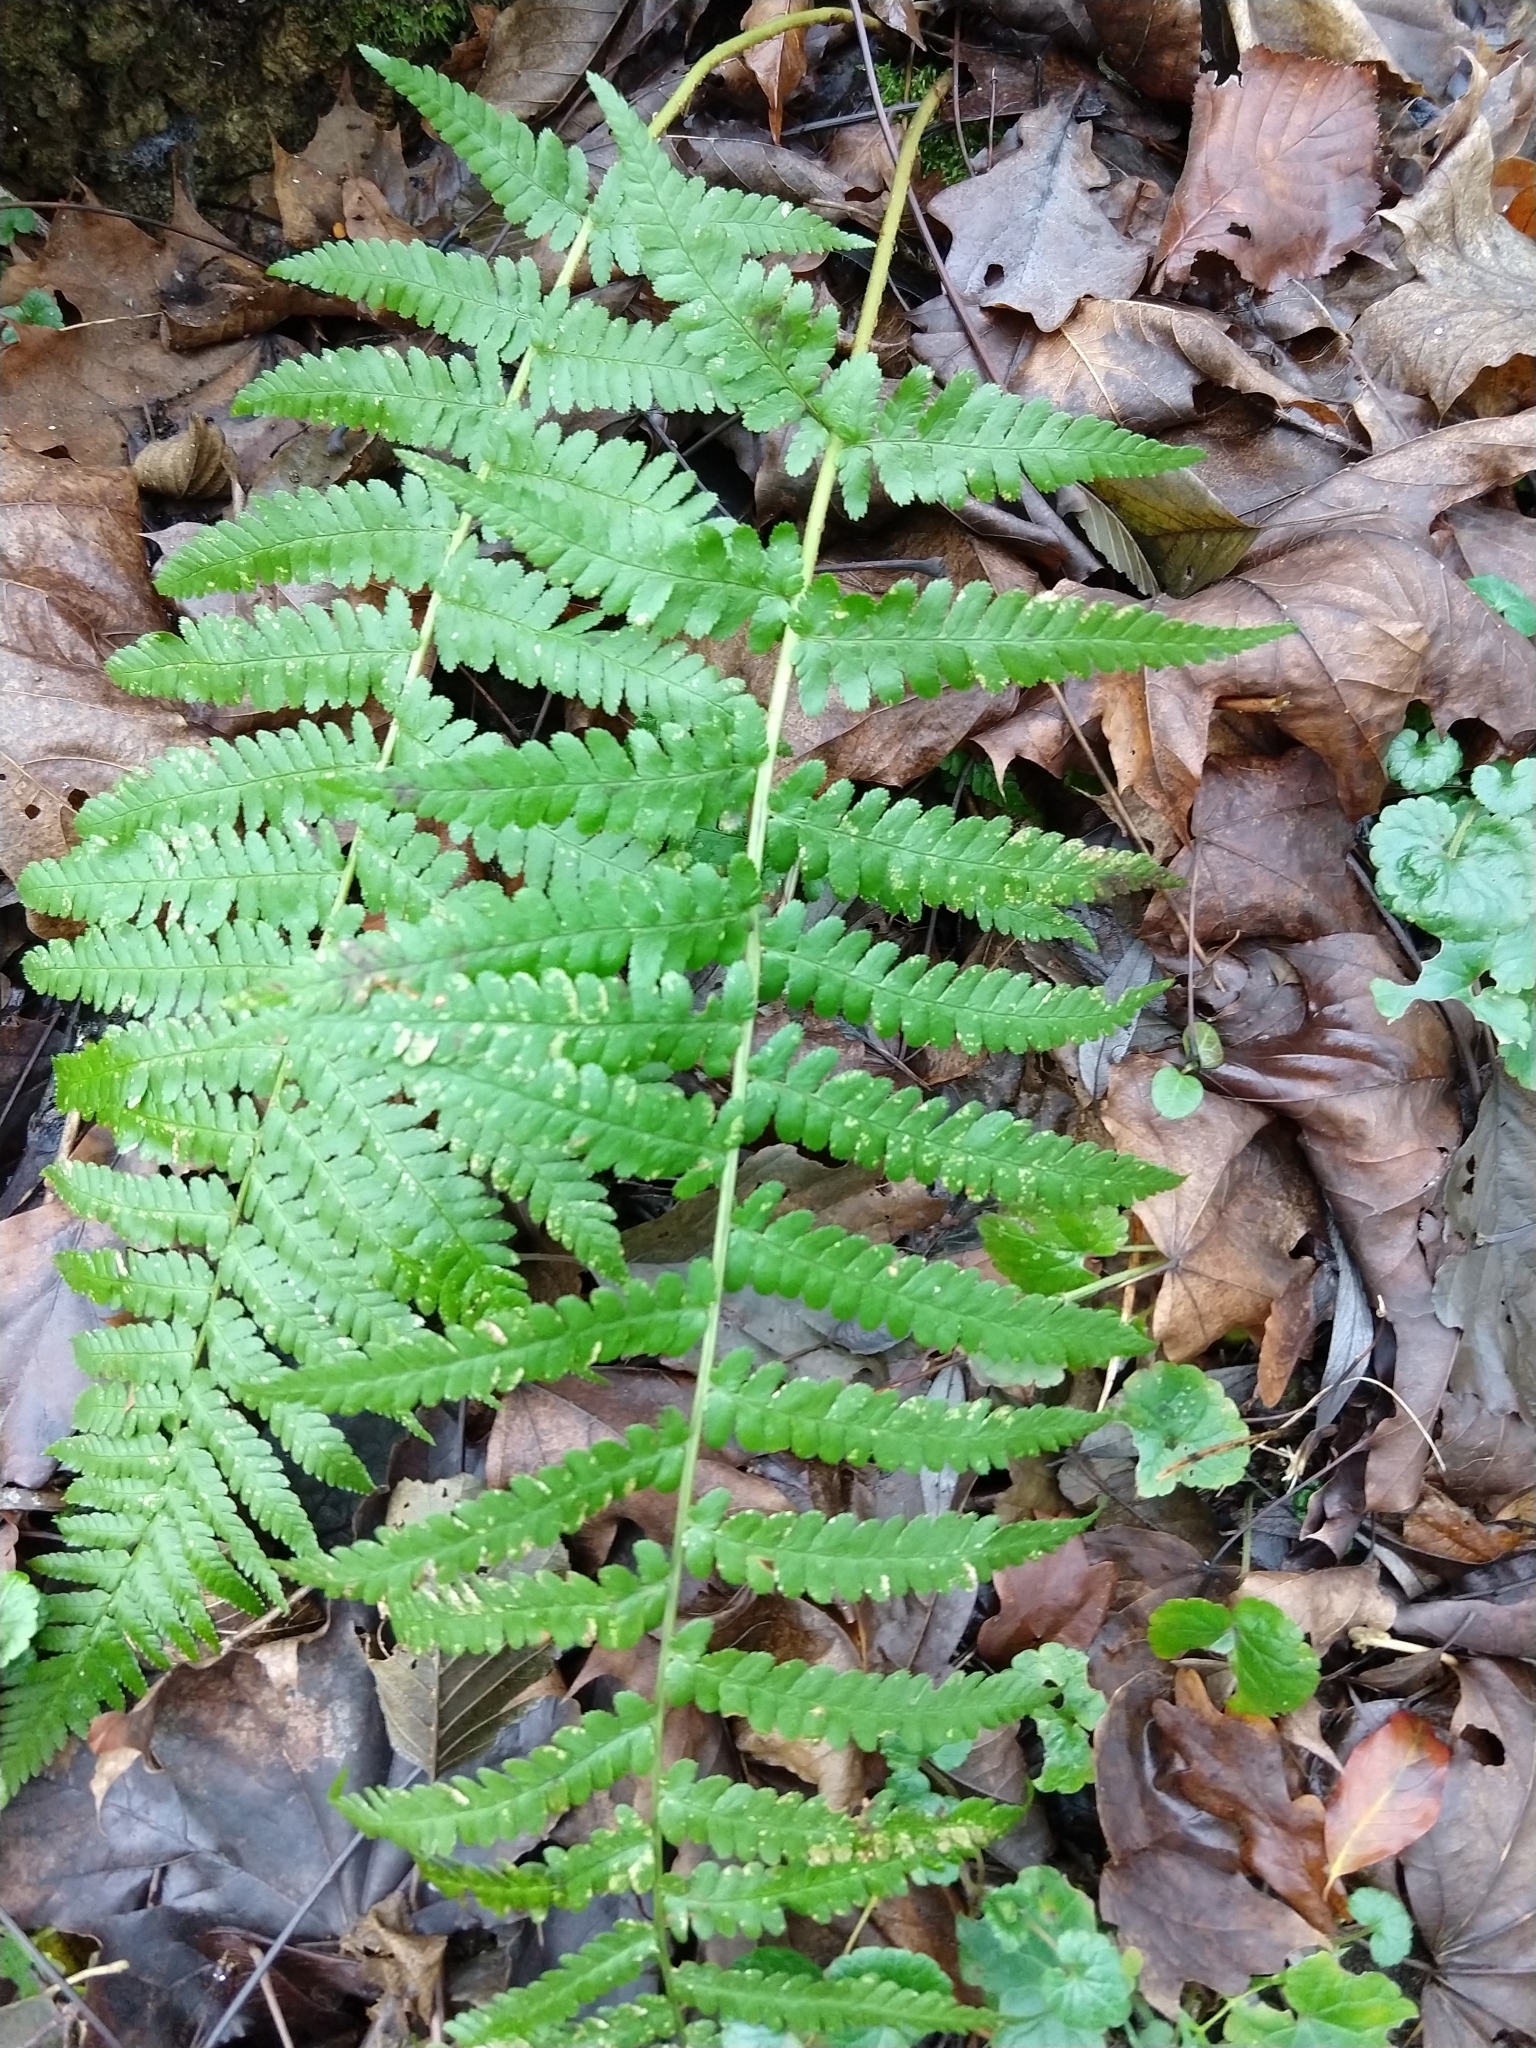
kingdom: Plantae
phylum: Tracheophyta
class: Polypodiopsida
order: Polypodiales
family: Dryopteridaceae
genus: Dryopteris
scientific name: Dryopteris filix-mas
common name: Male fern
